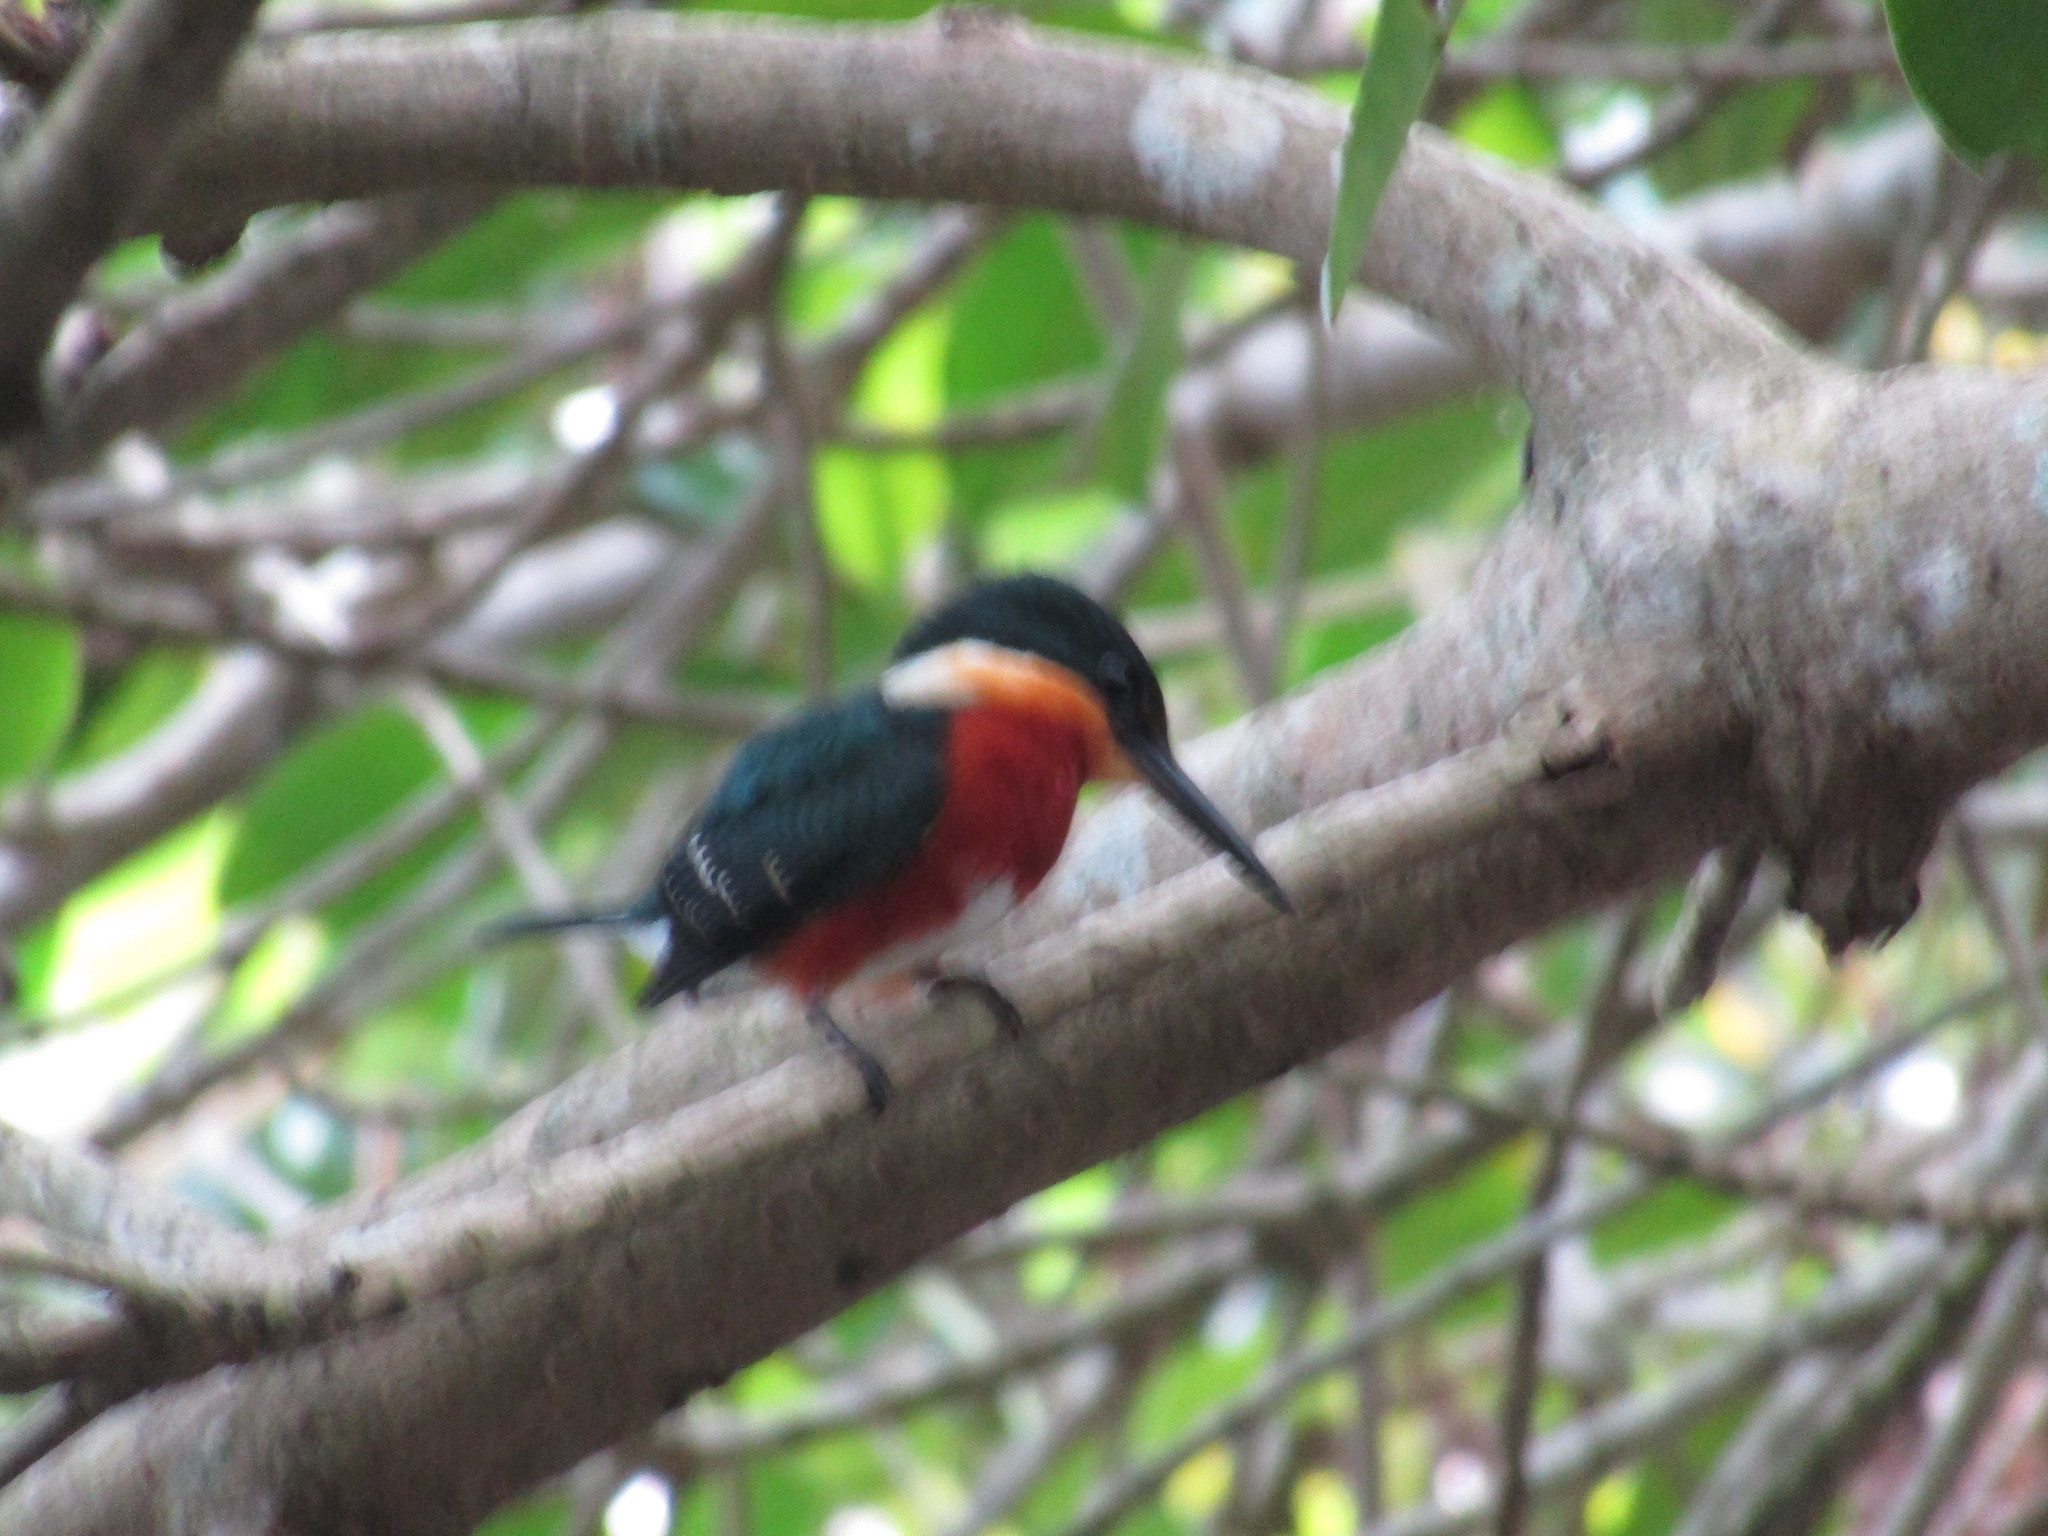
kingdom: Animalia
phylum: Chordata
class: Aves
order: Coraciiformes
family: Alcedinidae
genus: Chloroceryle
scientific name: Chloroceryle aenea
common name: American pygmy kingfisher
